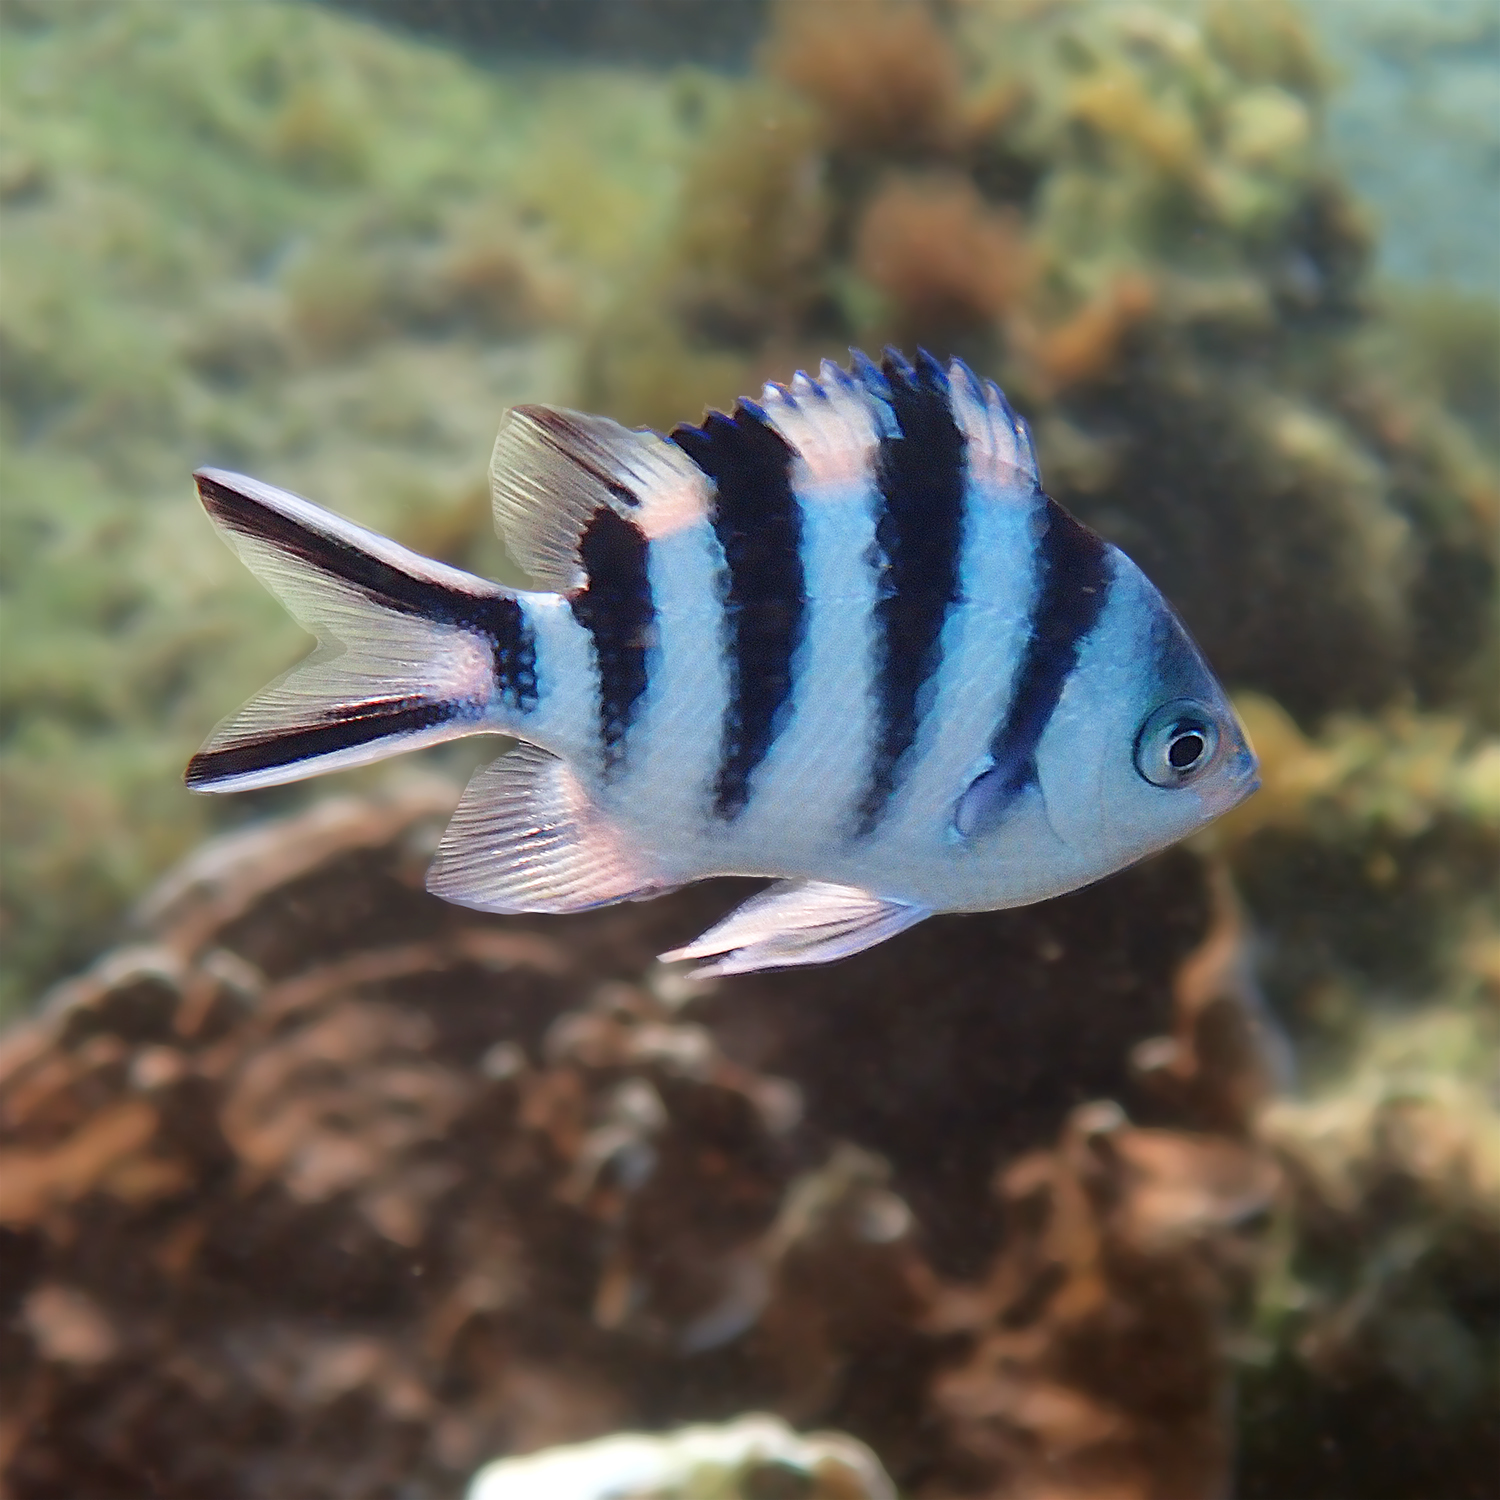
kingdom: Animalia
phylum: Chordata
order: Perciformes
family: Pomacentridae
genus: Abudefduf
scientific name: Abudefduf sexfasciatus
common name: Scissortail sergeant
